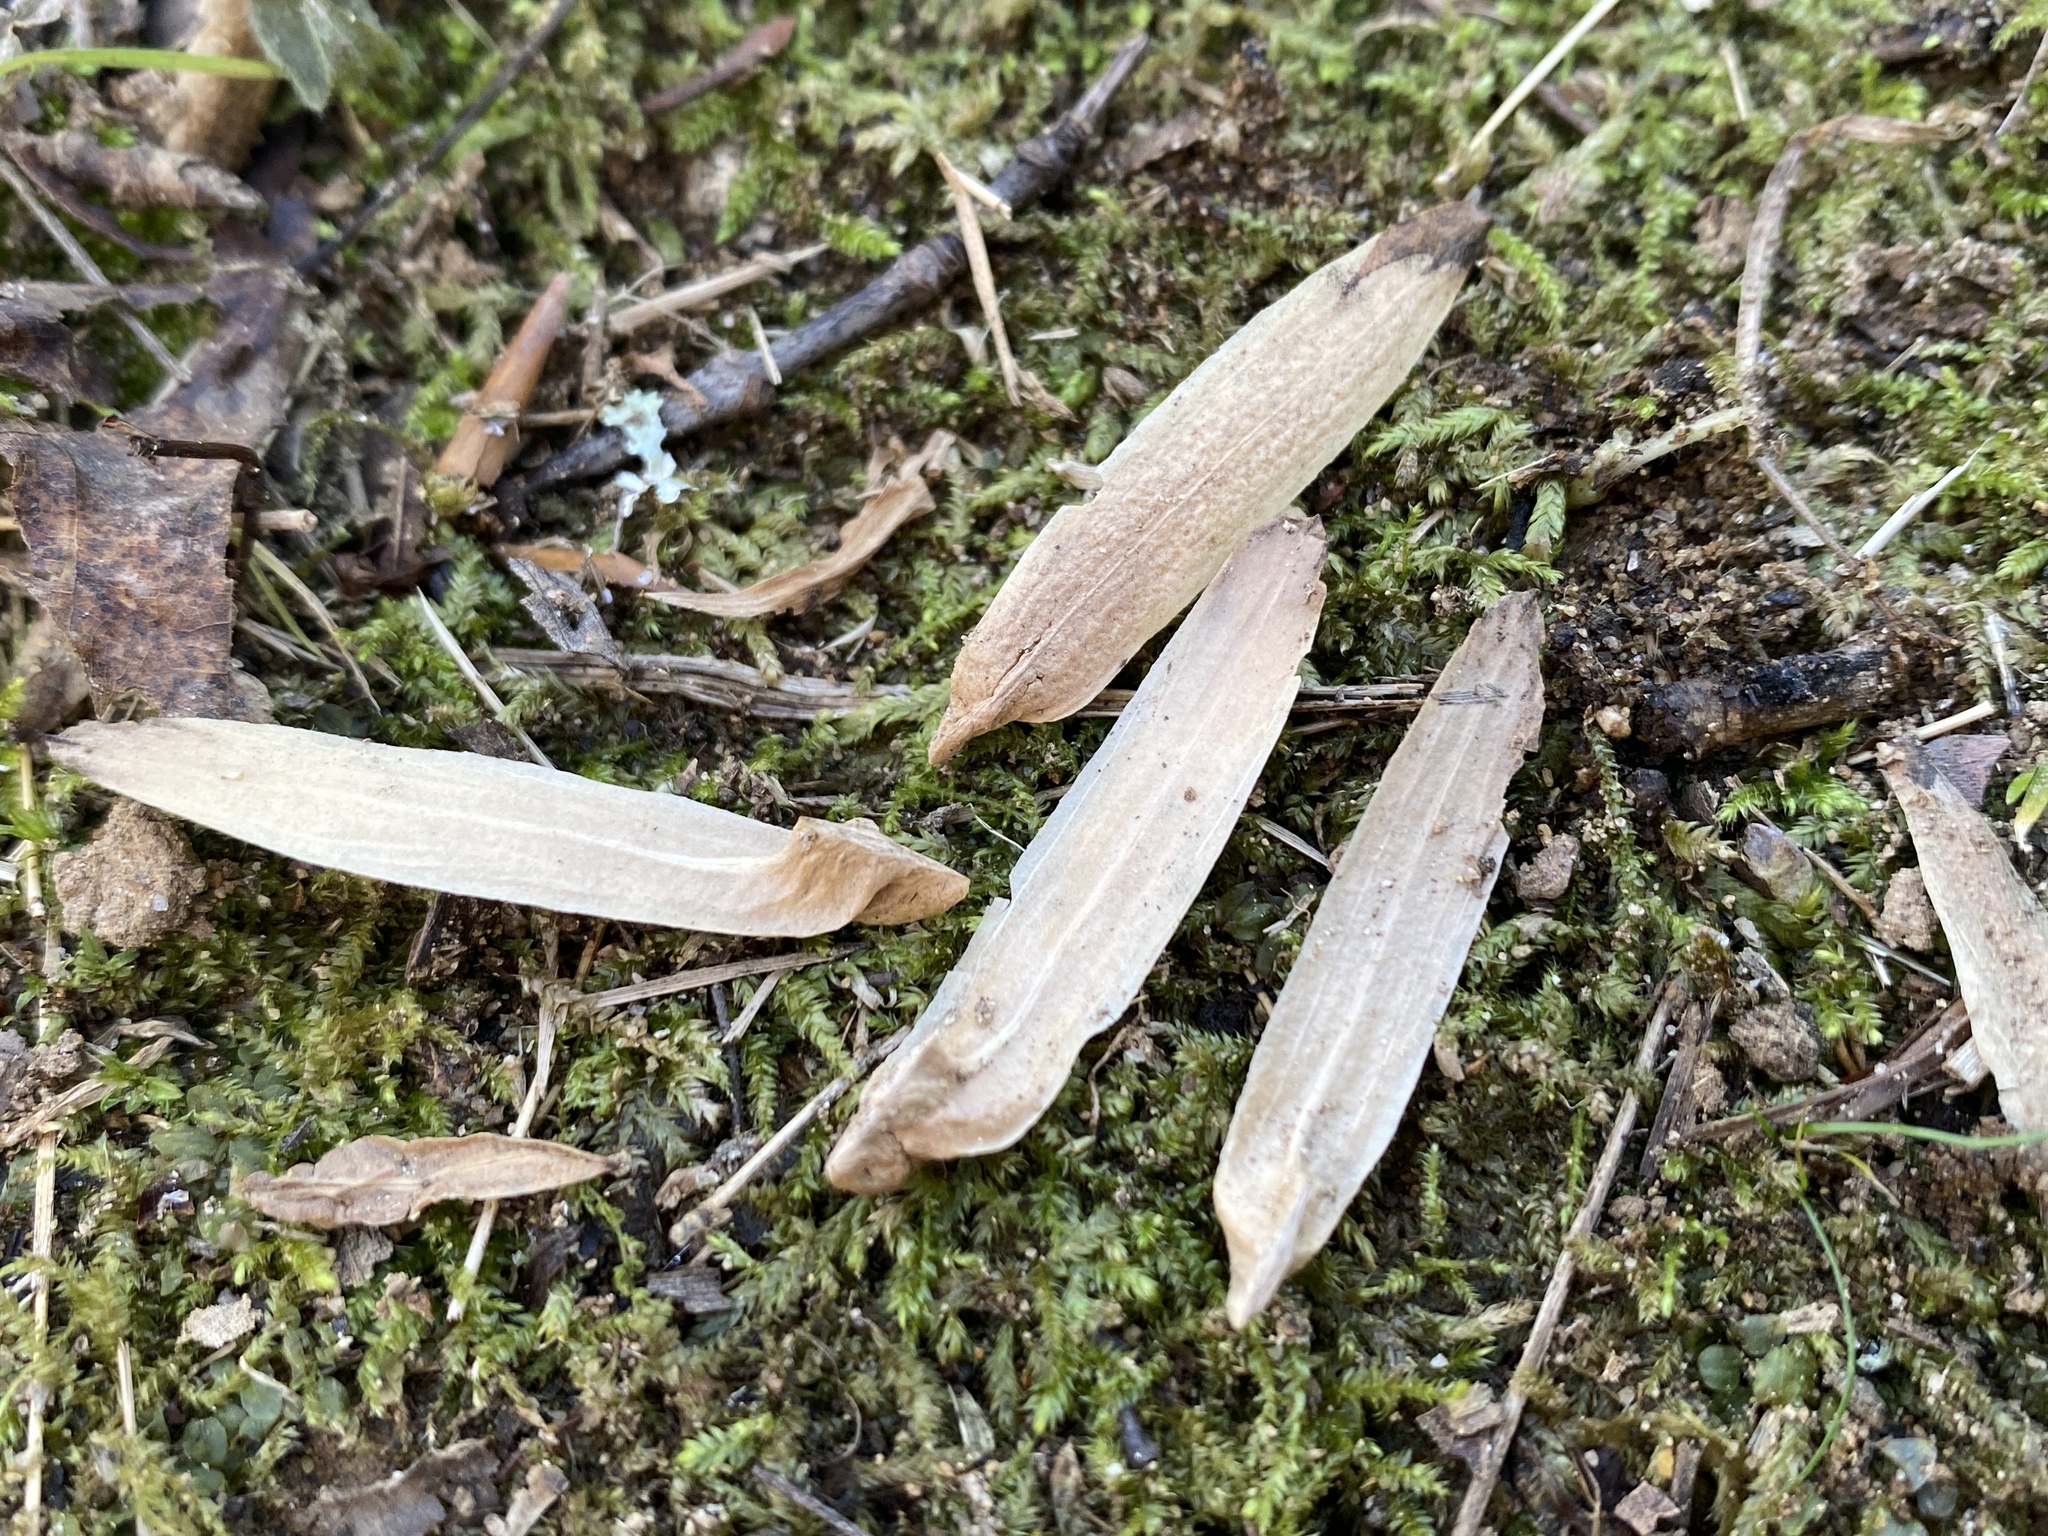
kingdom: Plantae
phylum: Tracheophyta
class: Magnoliopsida
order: Magnoliales
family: Magnoliaceae
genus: Liriodendron
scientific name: Liriodendron tulipifera
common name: Tulip tree
